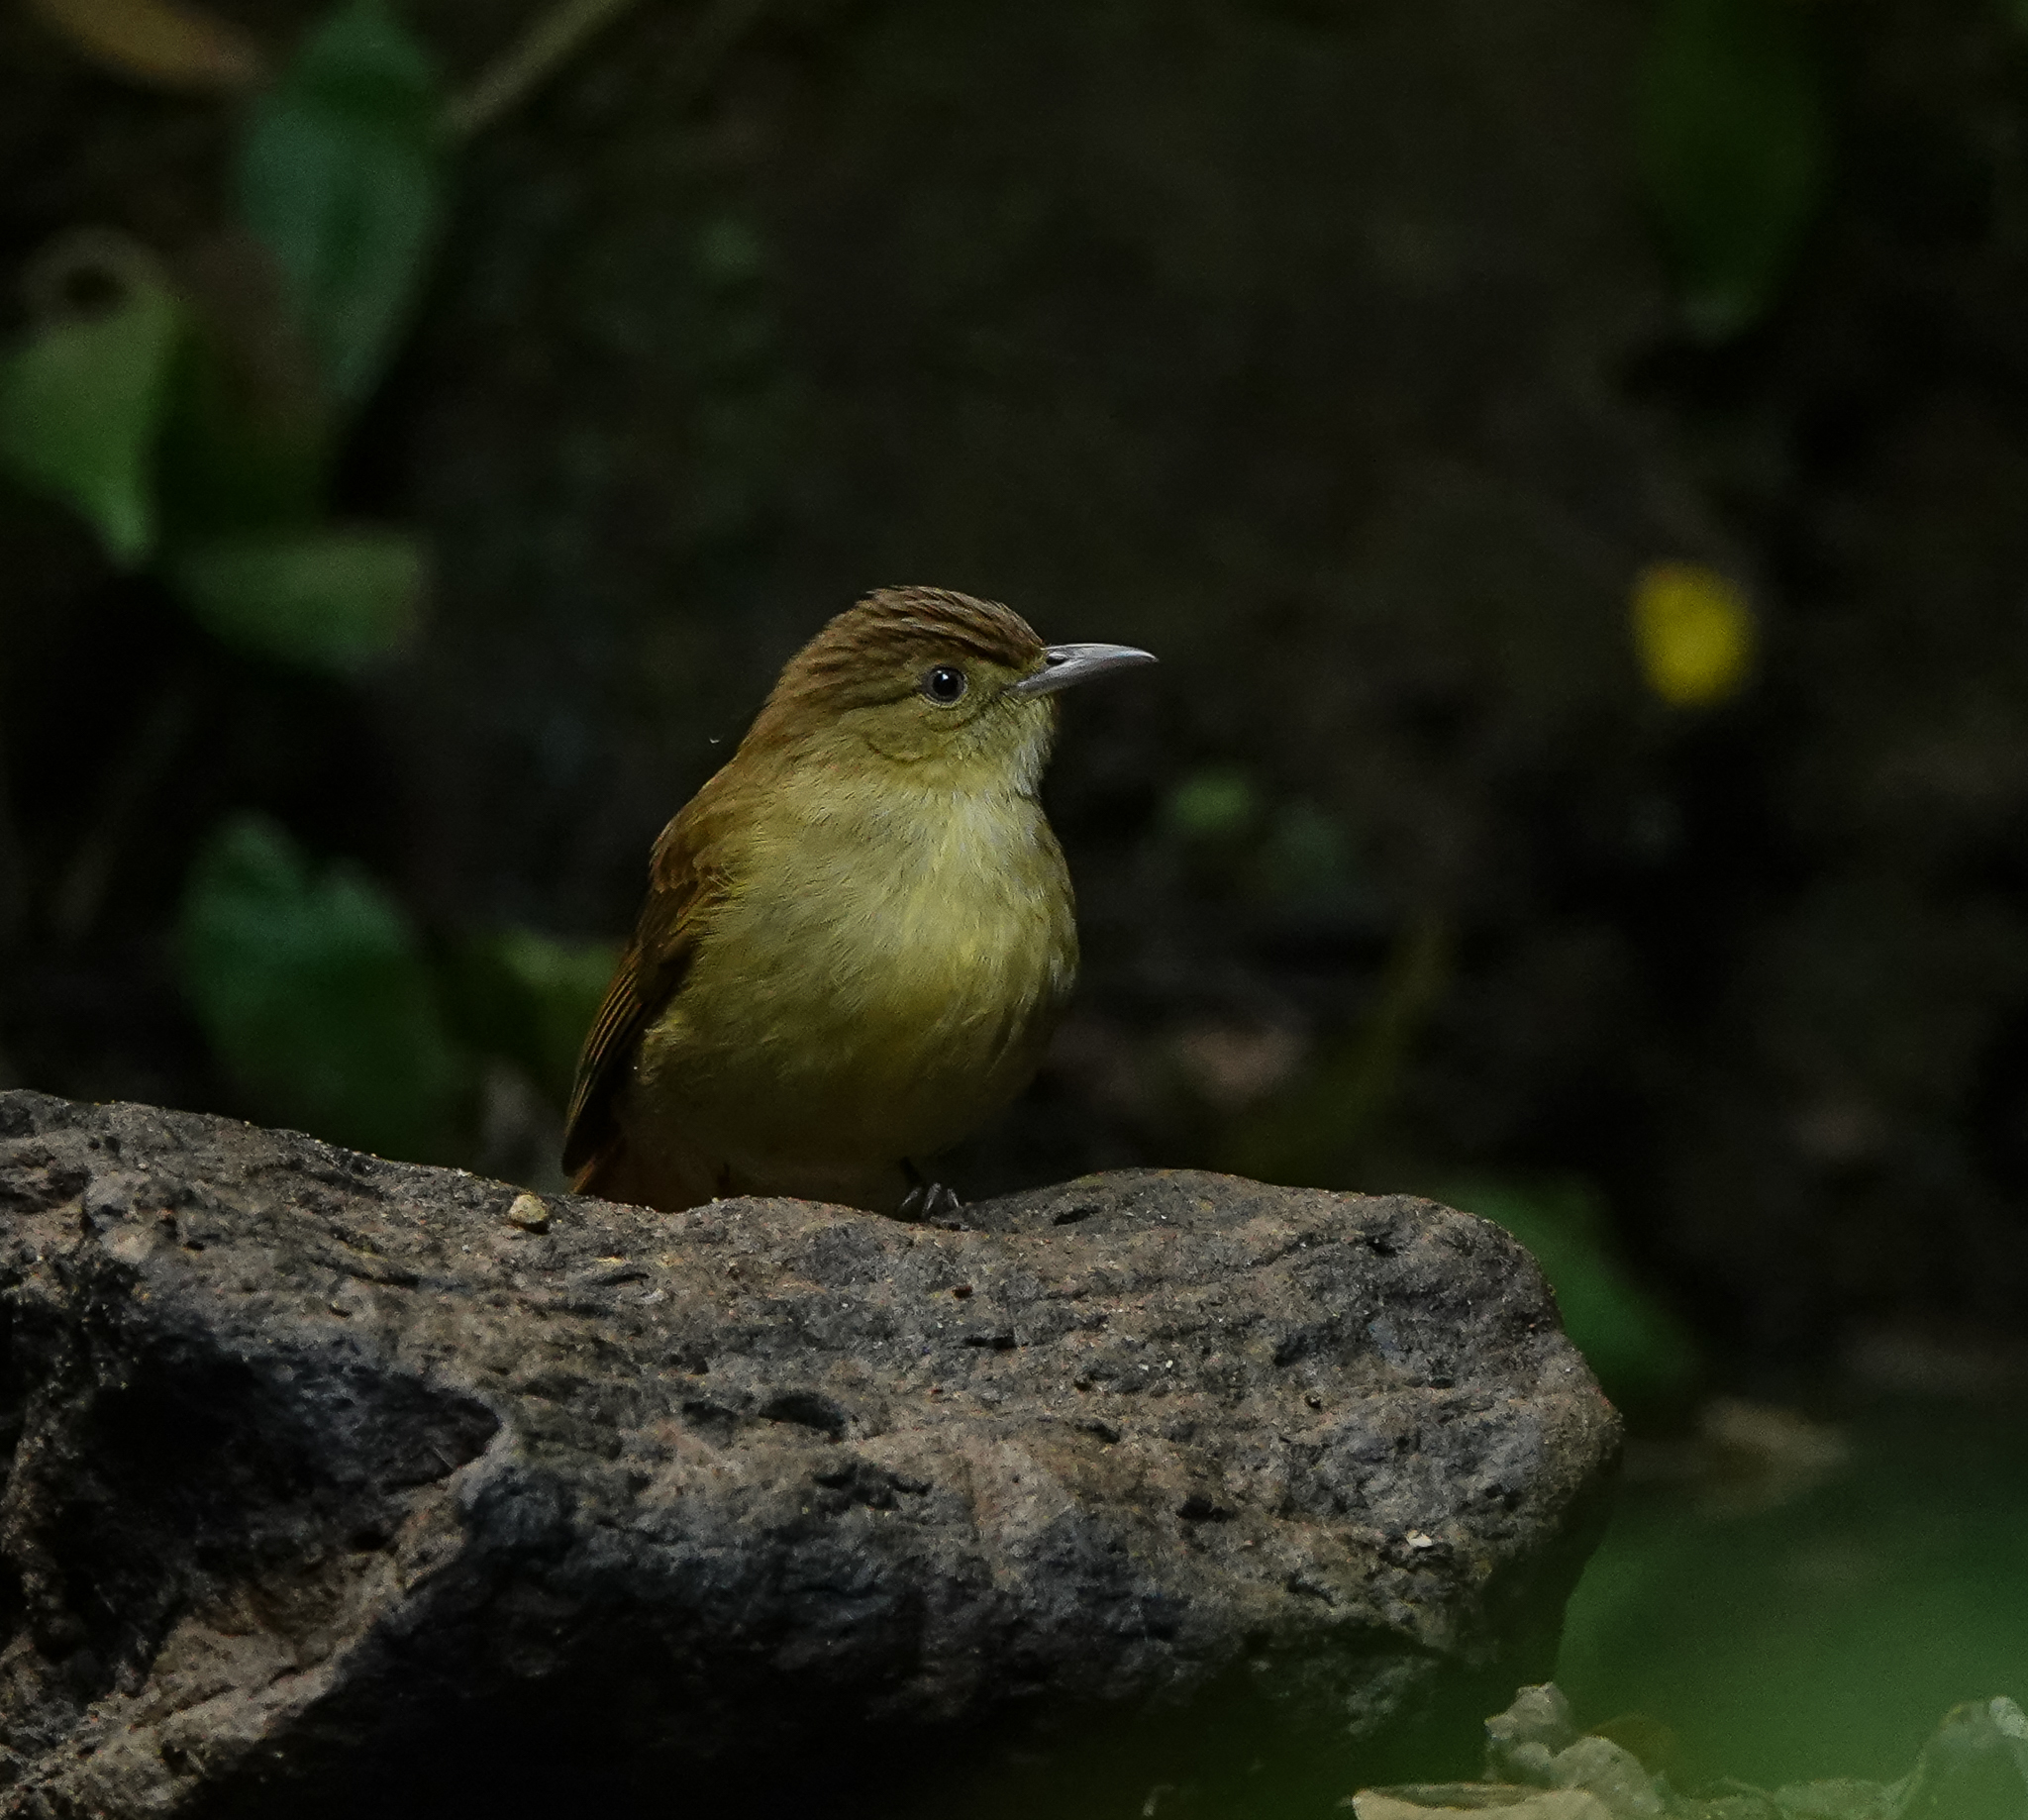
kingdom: Animalia
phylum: Chordata
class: Aves
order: Passeriformes
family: Pycnonotidae
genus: Iole
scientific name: Iole virescens
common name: Olive bulbul
